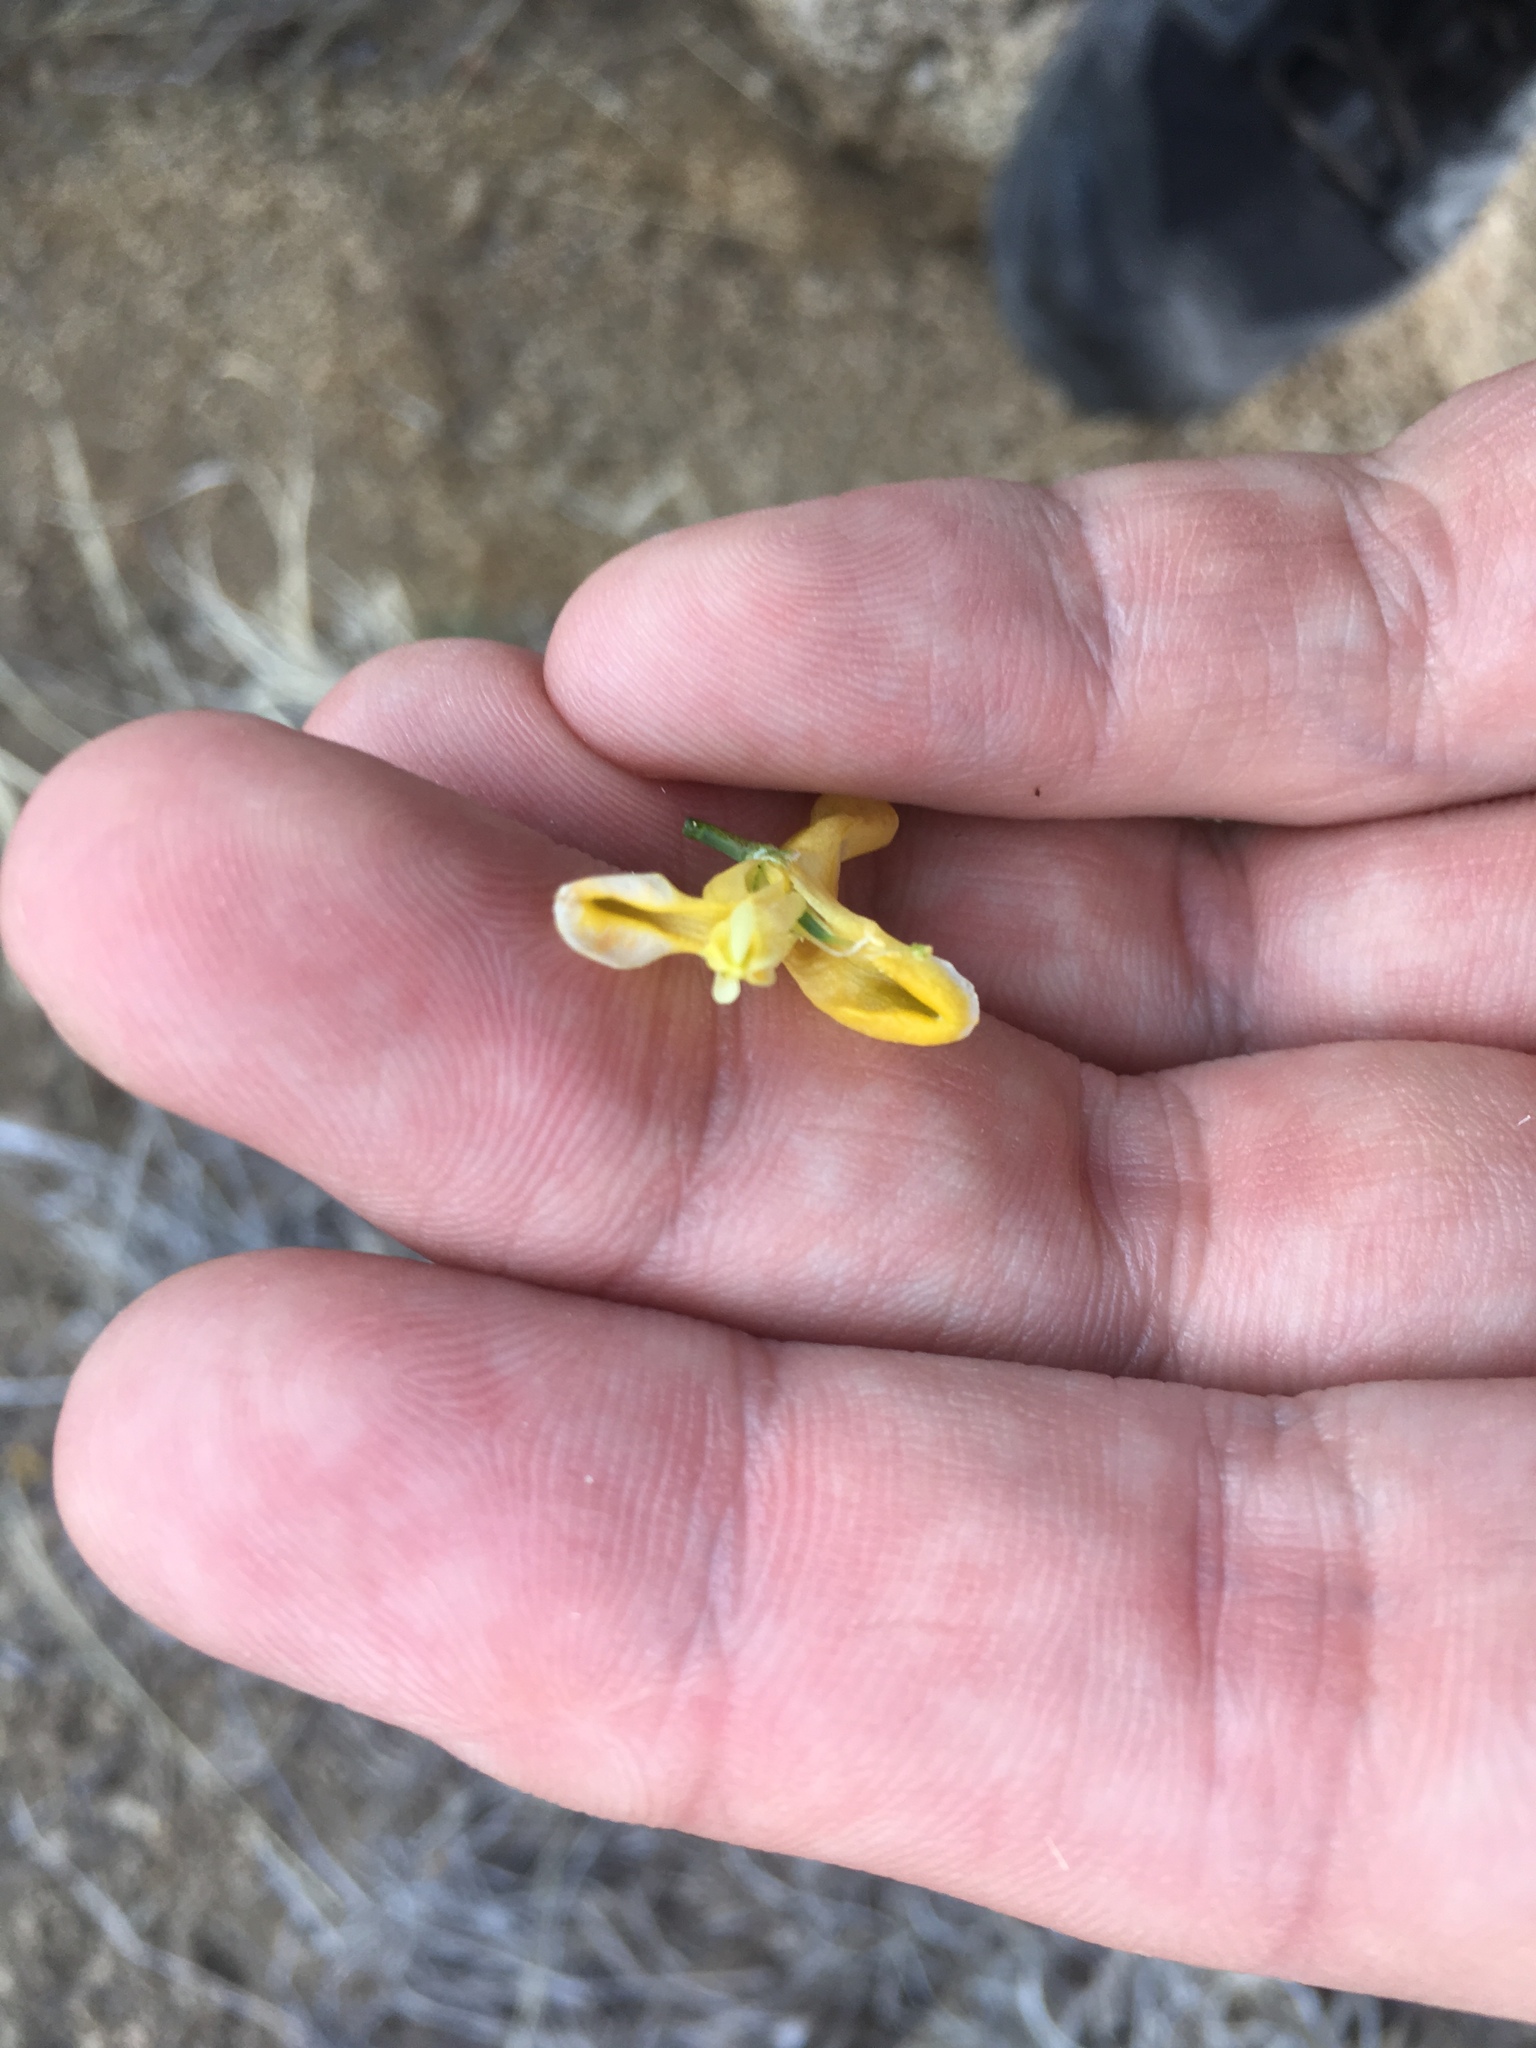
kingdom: Plantae
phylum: Tracheophyta
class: Magnoliopsida
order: Ranunculales
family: Papaveraceae
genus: Corydalis
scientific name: Corydalis aurea
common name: Golden corydalis
